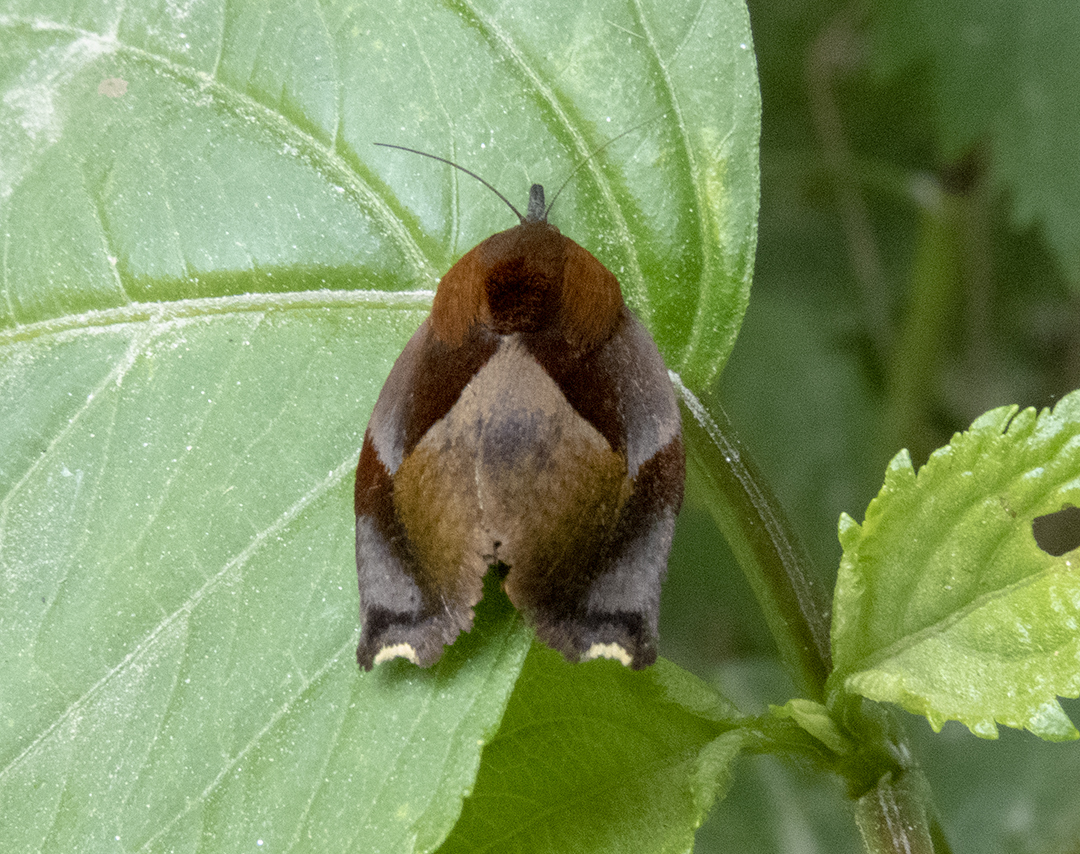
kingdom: Animalia
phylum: Arthropoda
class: Insecta
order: Lepidoptera
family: Hyblaeidae
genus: Hyblaea
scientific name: Hyblaea firmamentum
